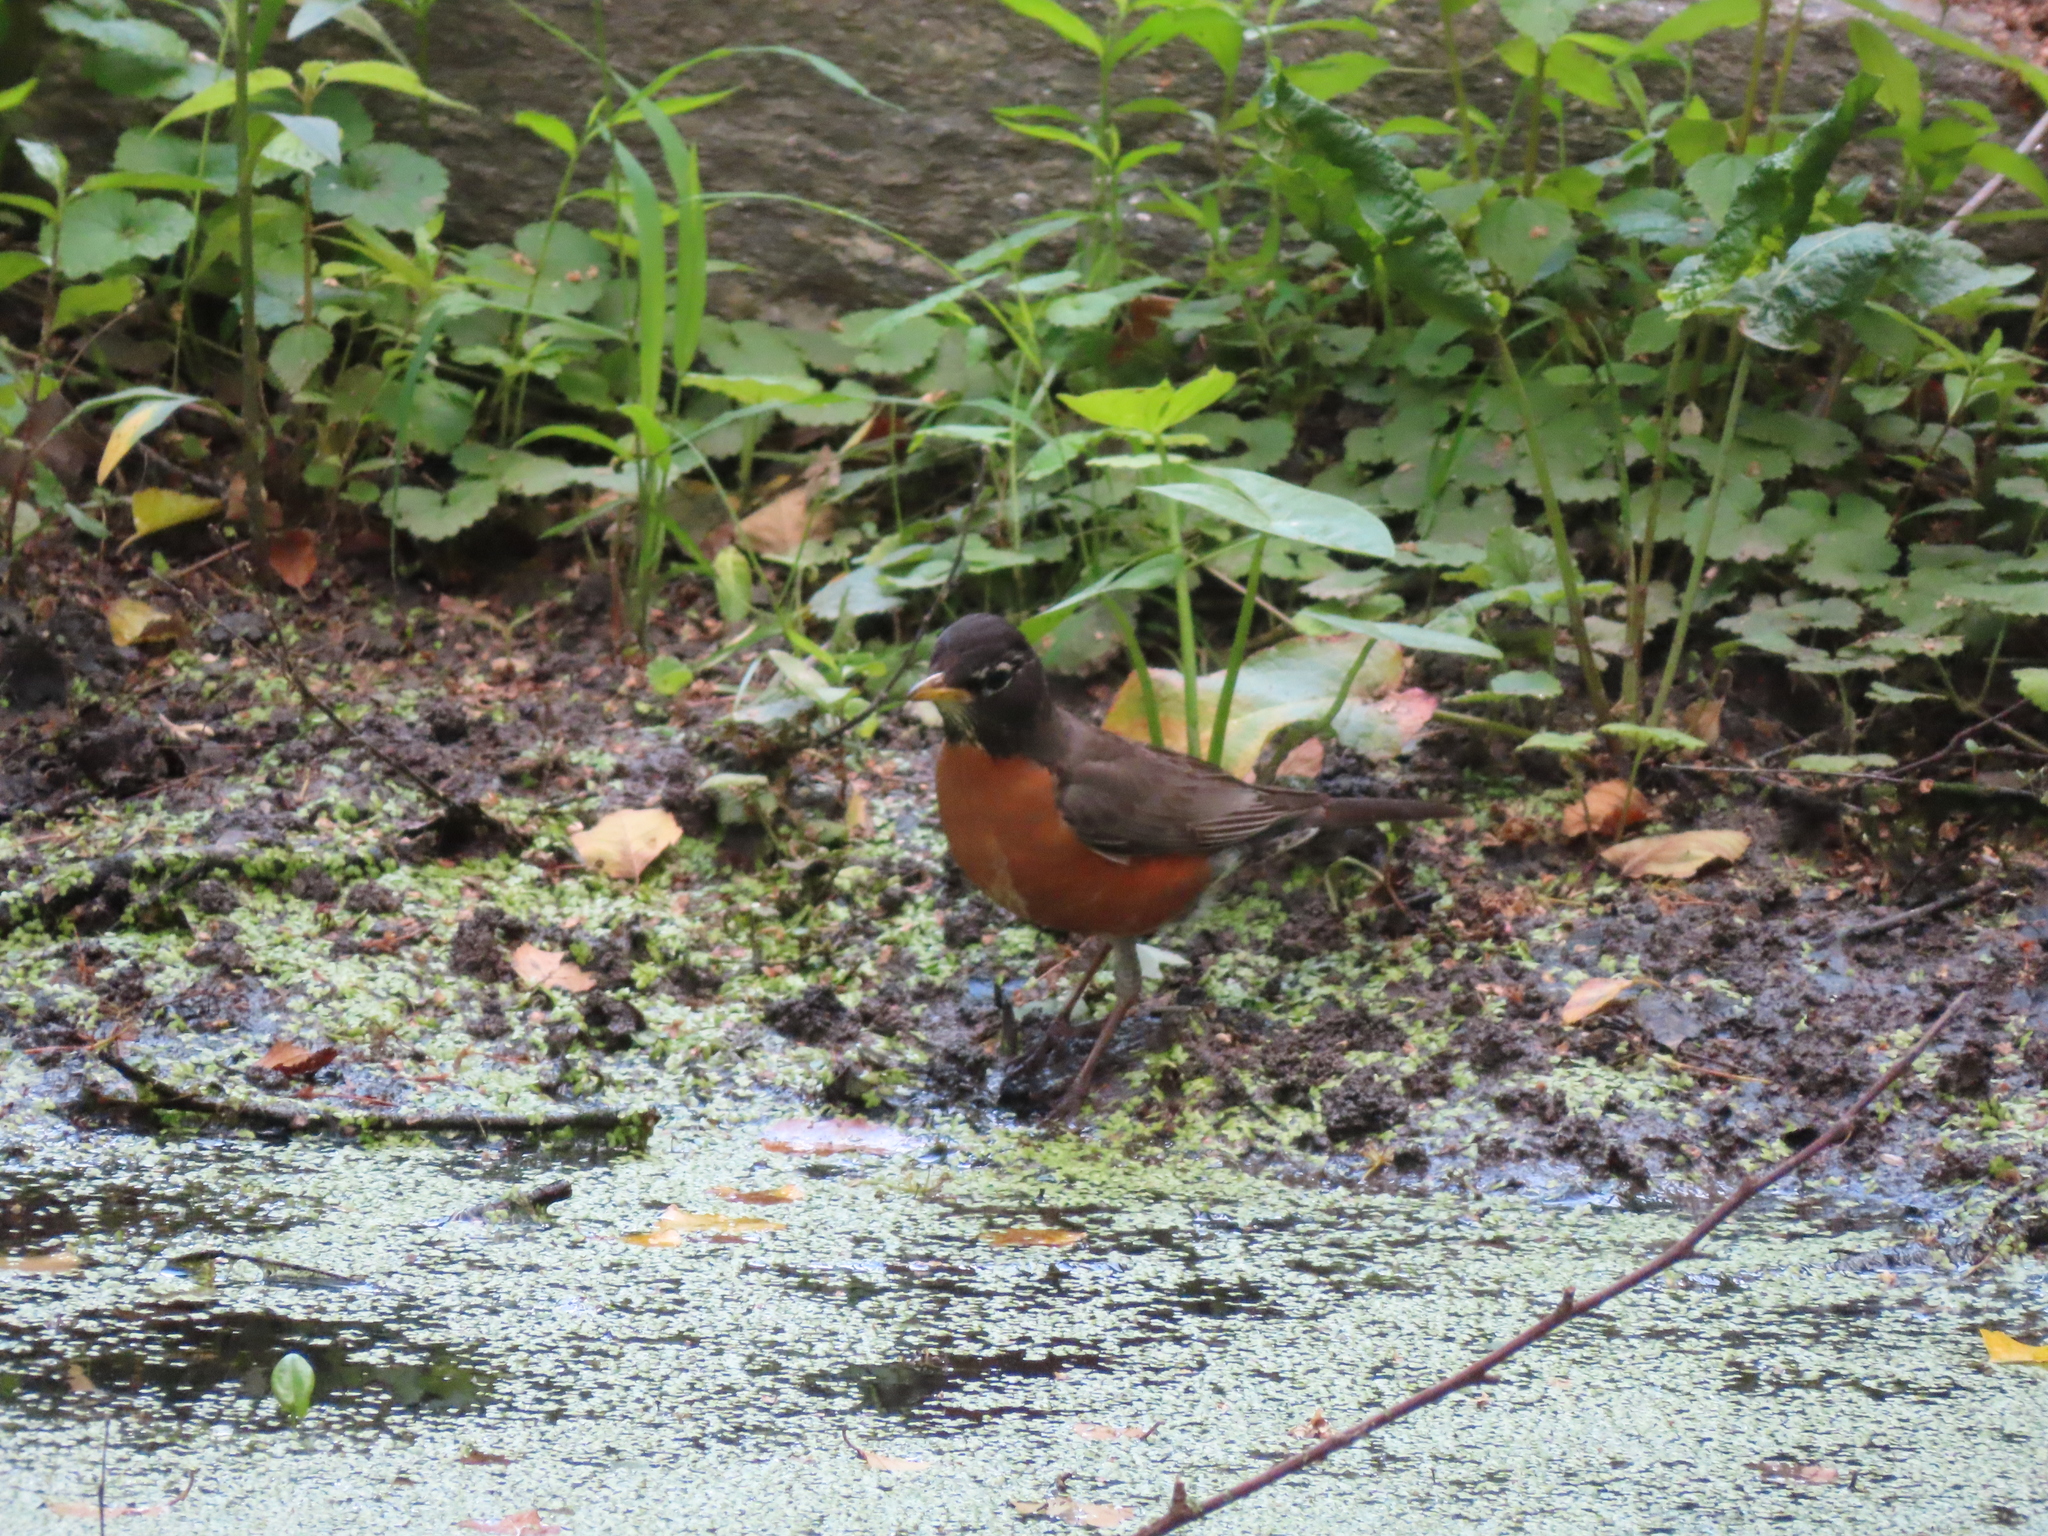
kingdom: Animalia
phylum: Chordata
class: Aves
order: Passeriformes
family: Turdidae
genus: Turdus
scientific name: Turdus migratorius
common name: American robin
